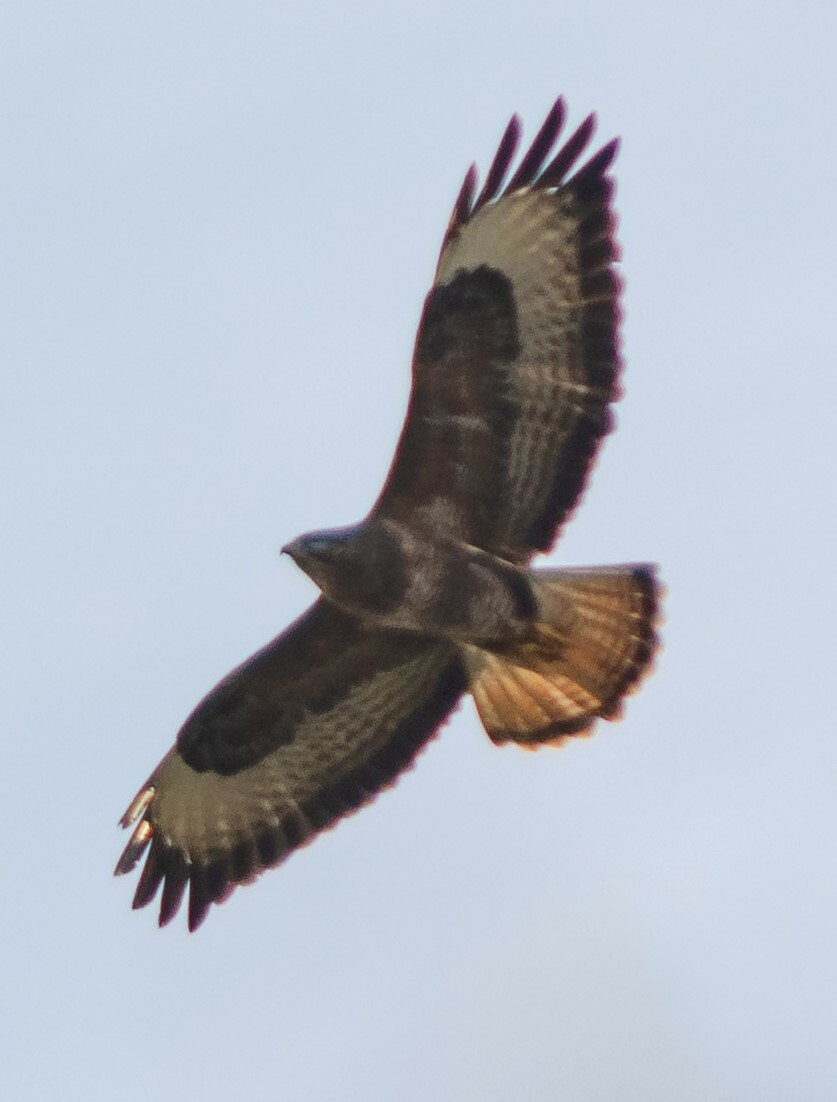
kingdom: Animalia
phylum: Chordata
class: Aves
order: Accipitriformes
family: Accipitridae
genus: Buteo
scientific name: Buteo buteo
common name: Common buzzard
